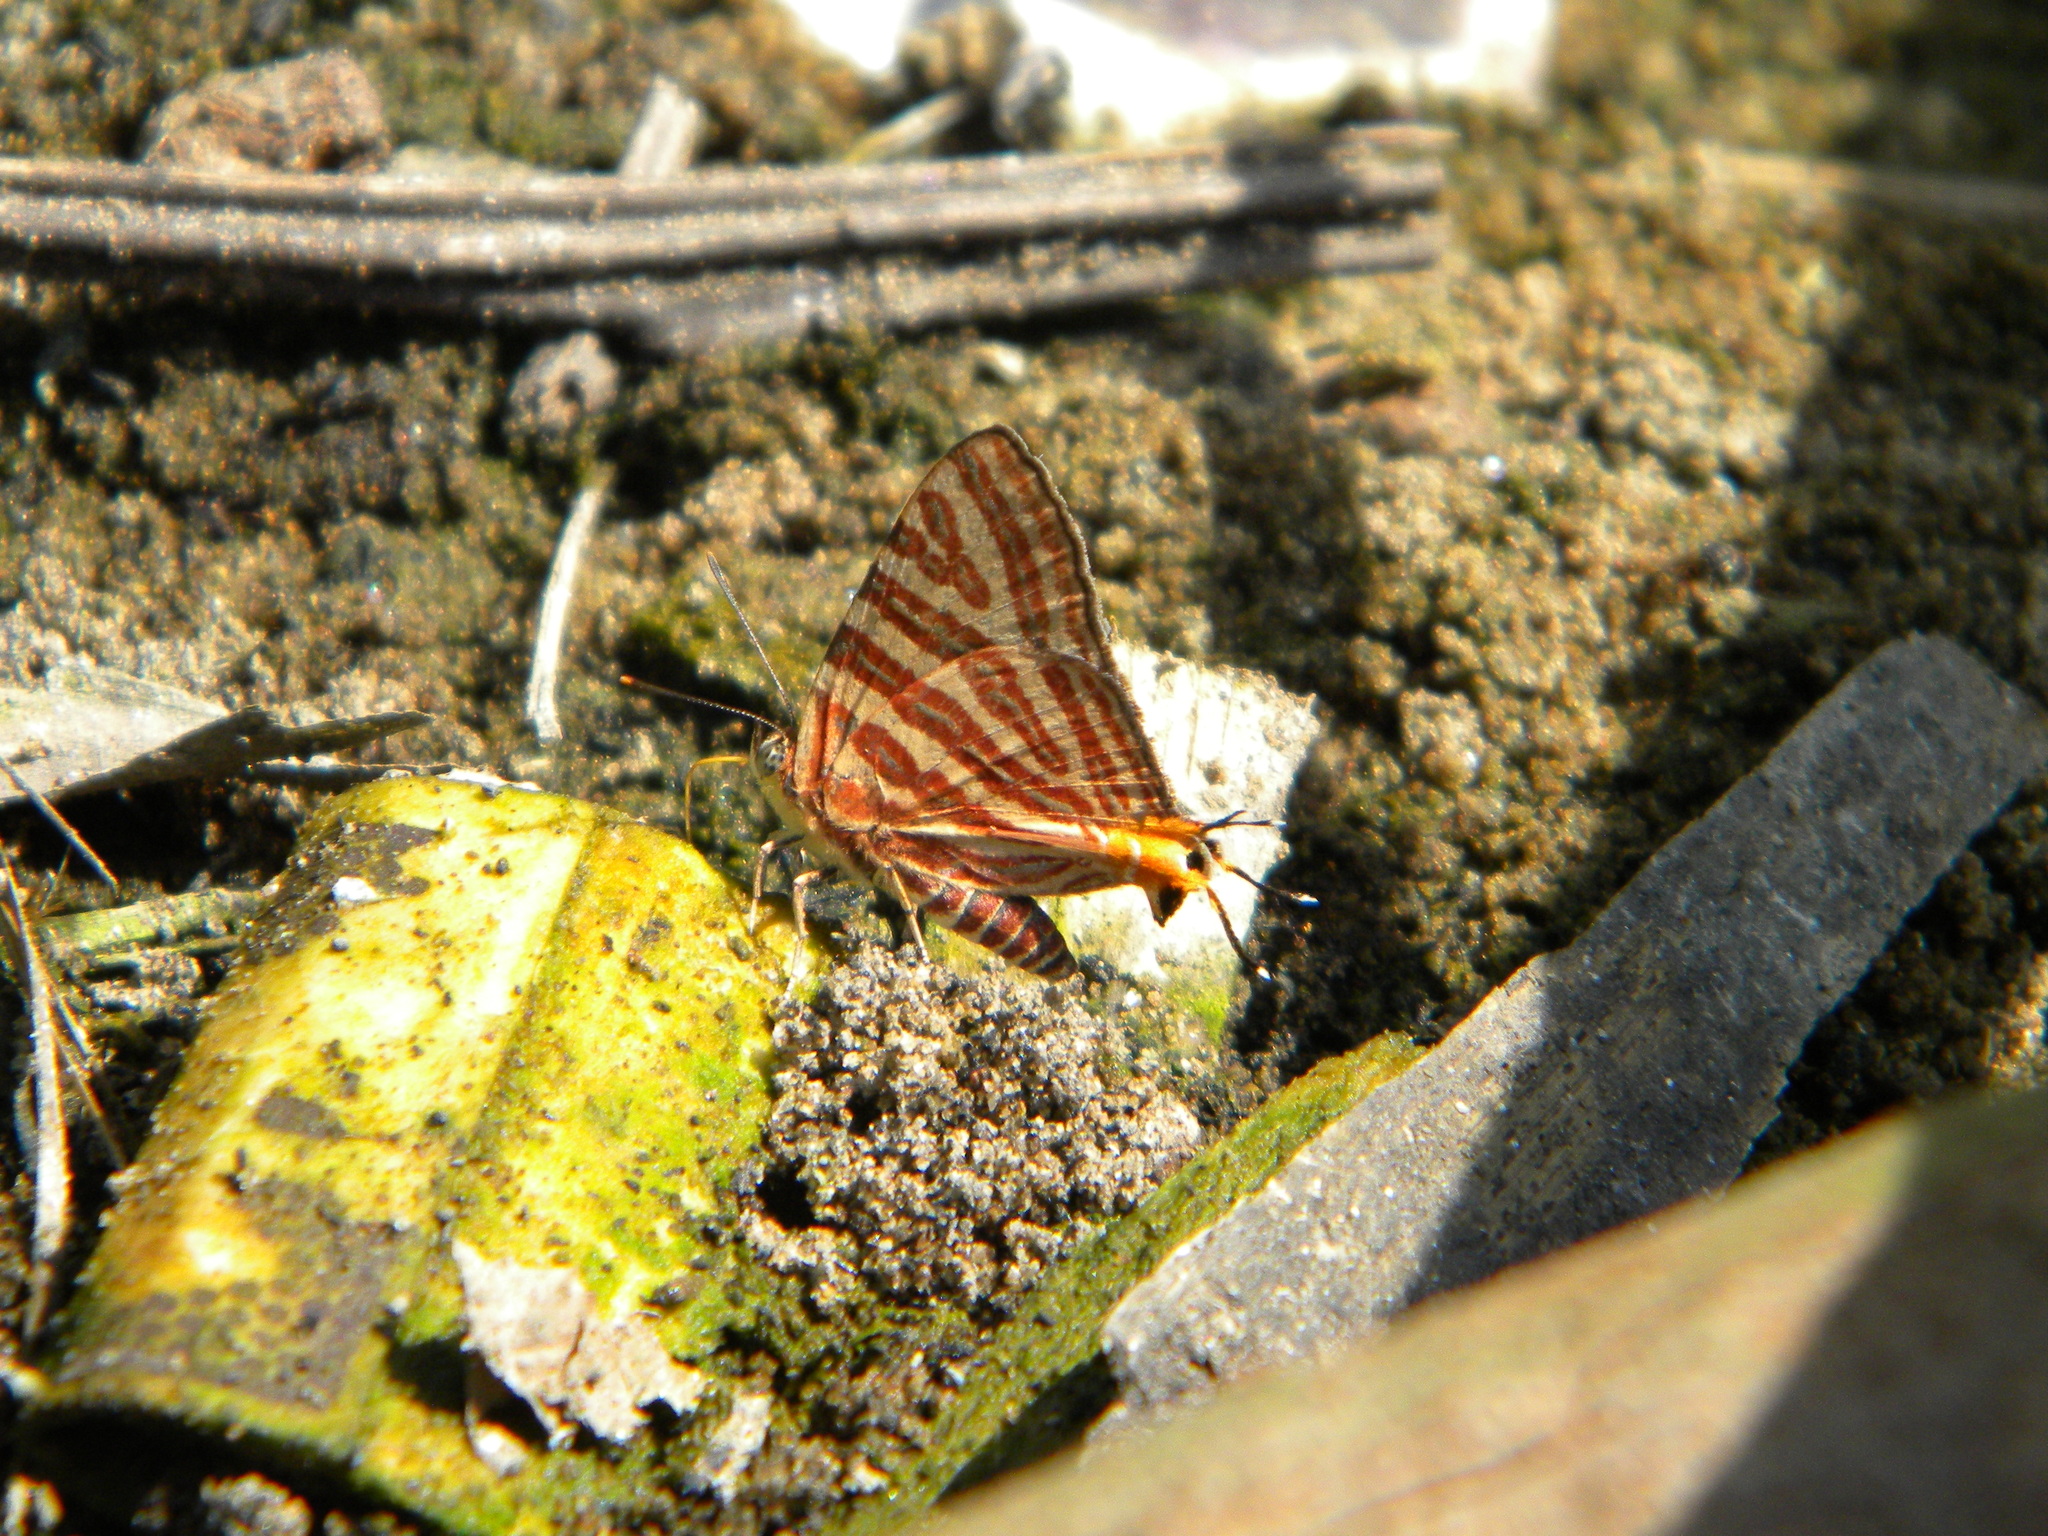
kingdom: Animalia
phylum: Arthropoda
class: Insecta
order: Lepidoptera
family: Lycaenidae
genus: Cigaritis
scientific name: Cigaritis lohita
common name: Long-banded silverline
